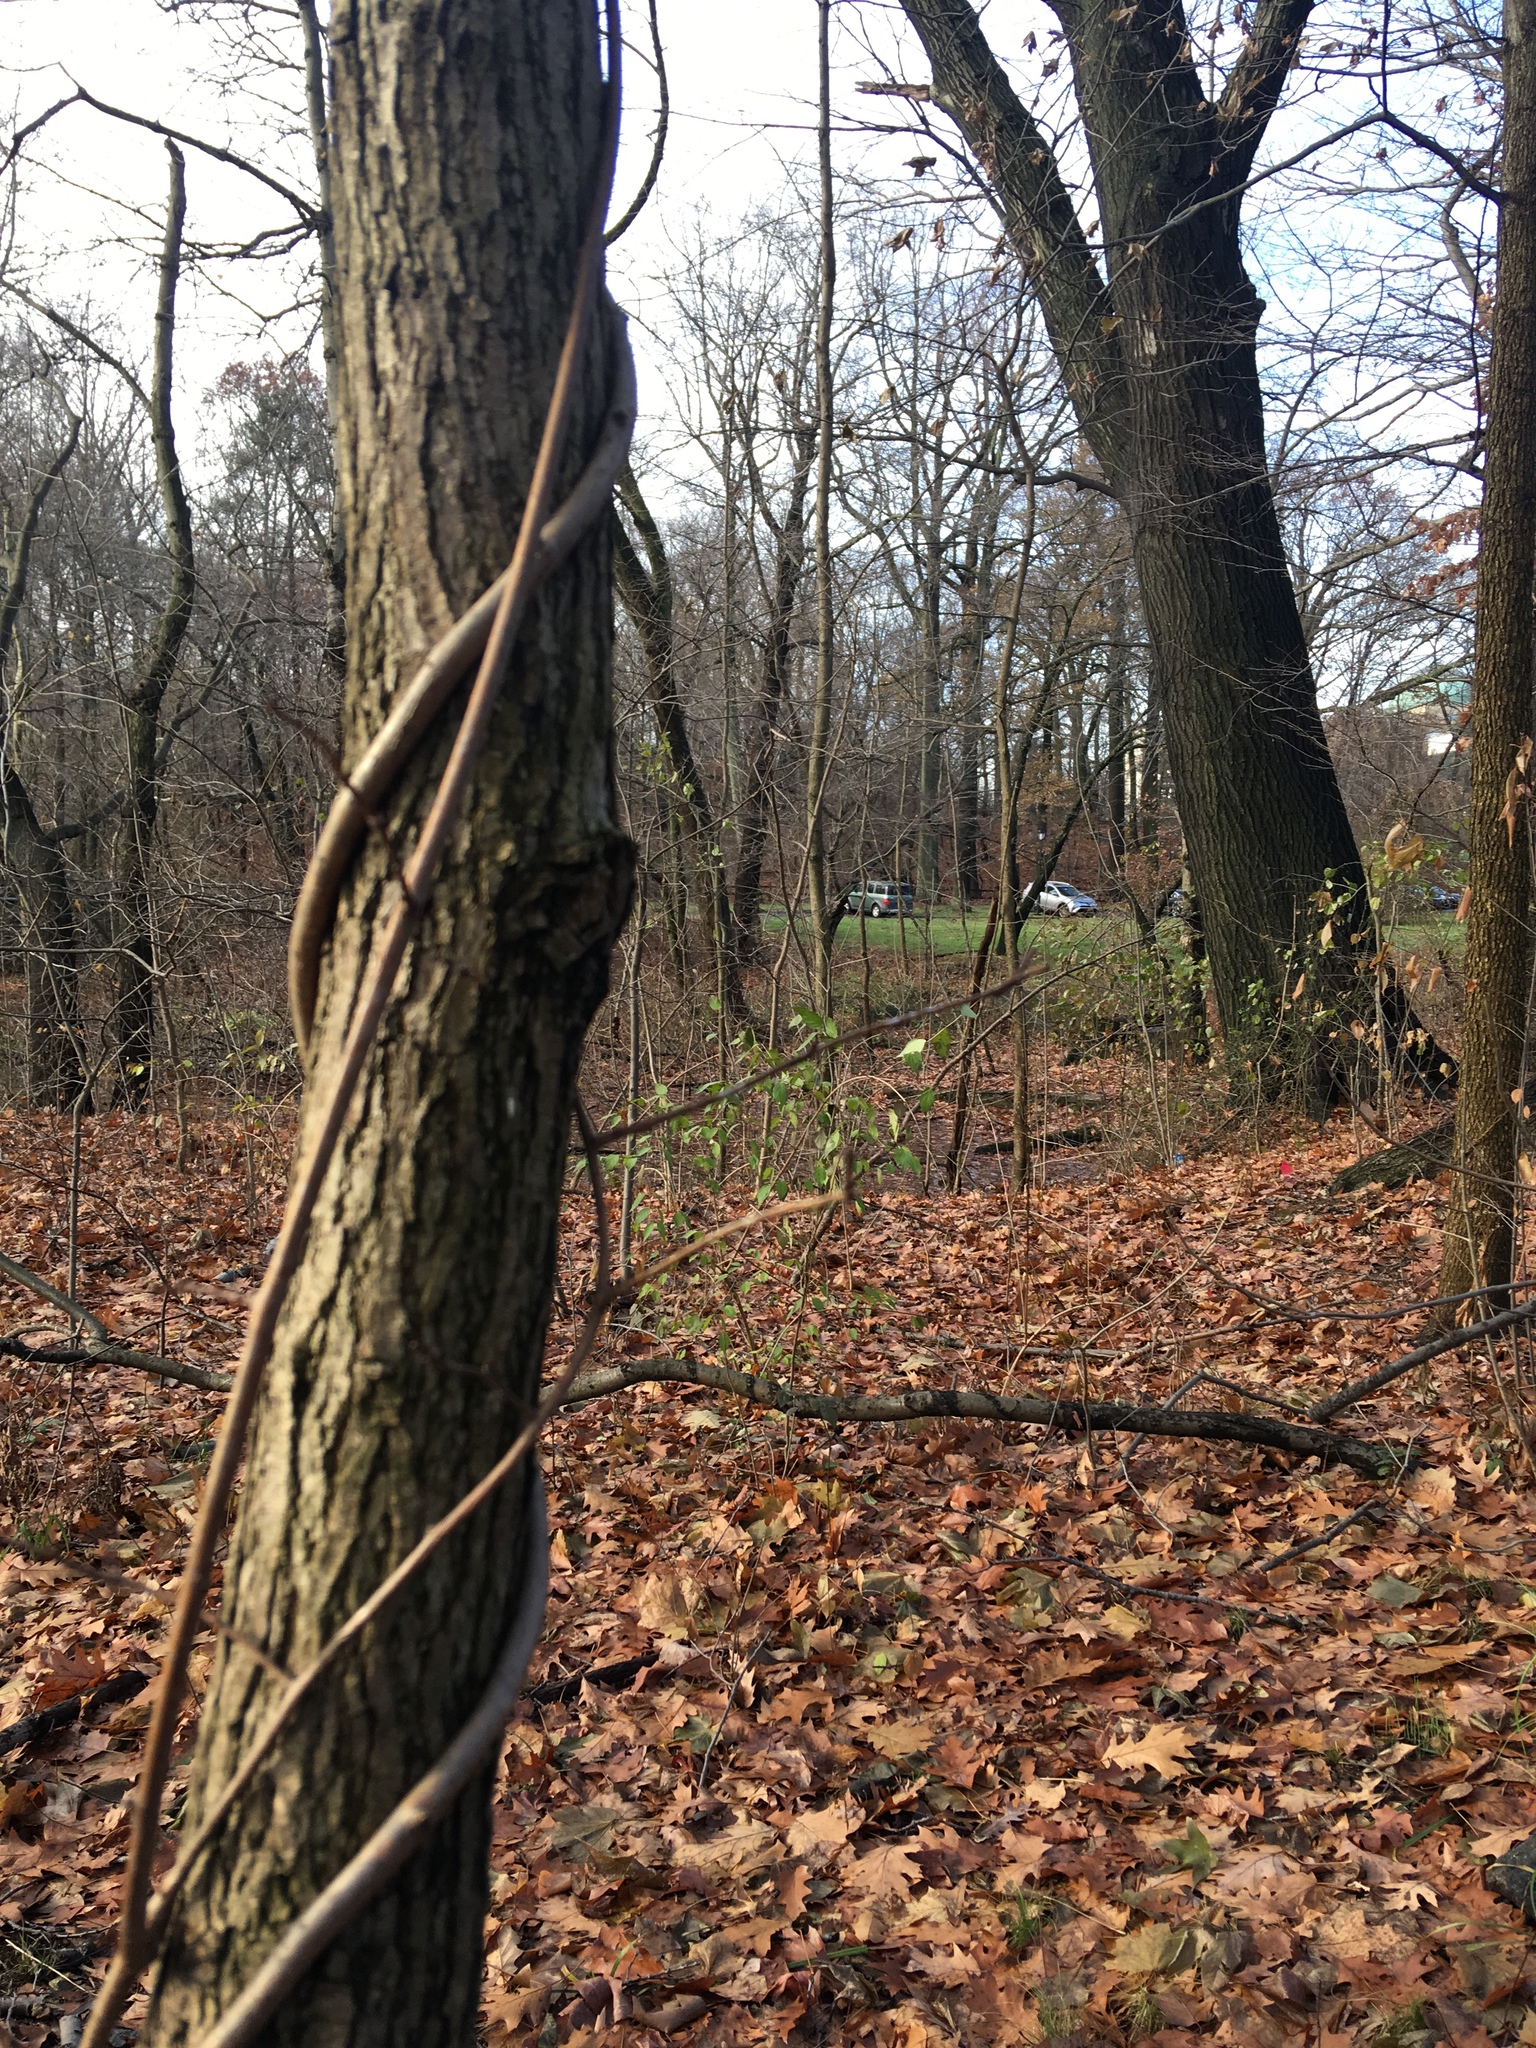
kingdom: Plantae
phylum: Tracheophyta
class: Magnoliopsida
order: Celastrales
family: Celastraceae
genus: Celastrus
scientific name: Celastrus orbiculatus
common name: Oriental bittersweet
